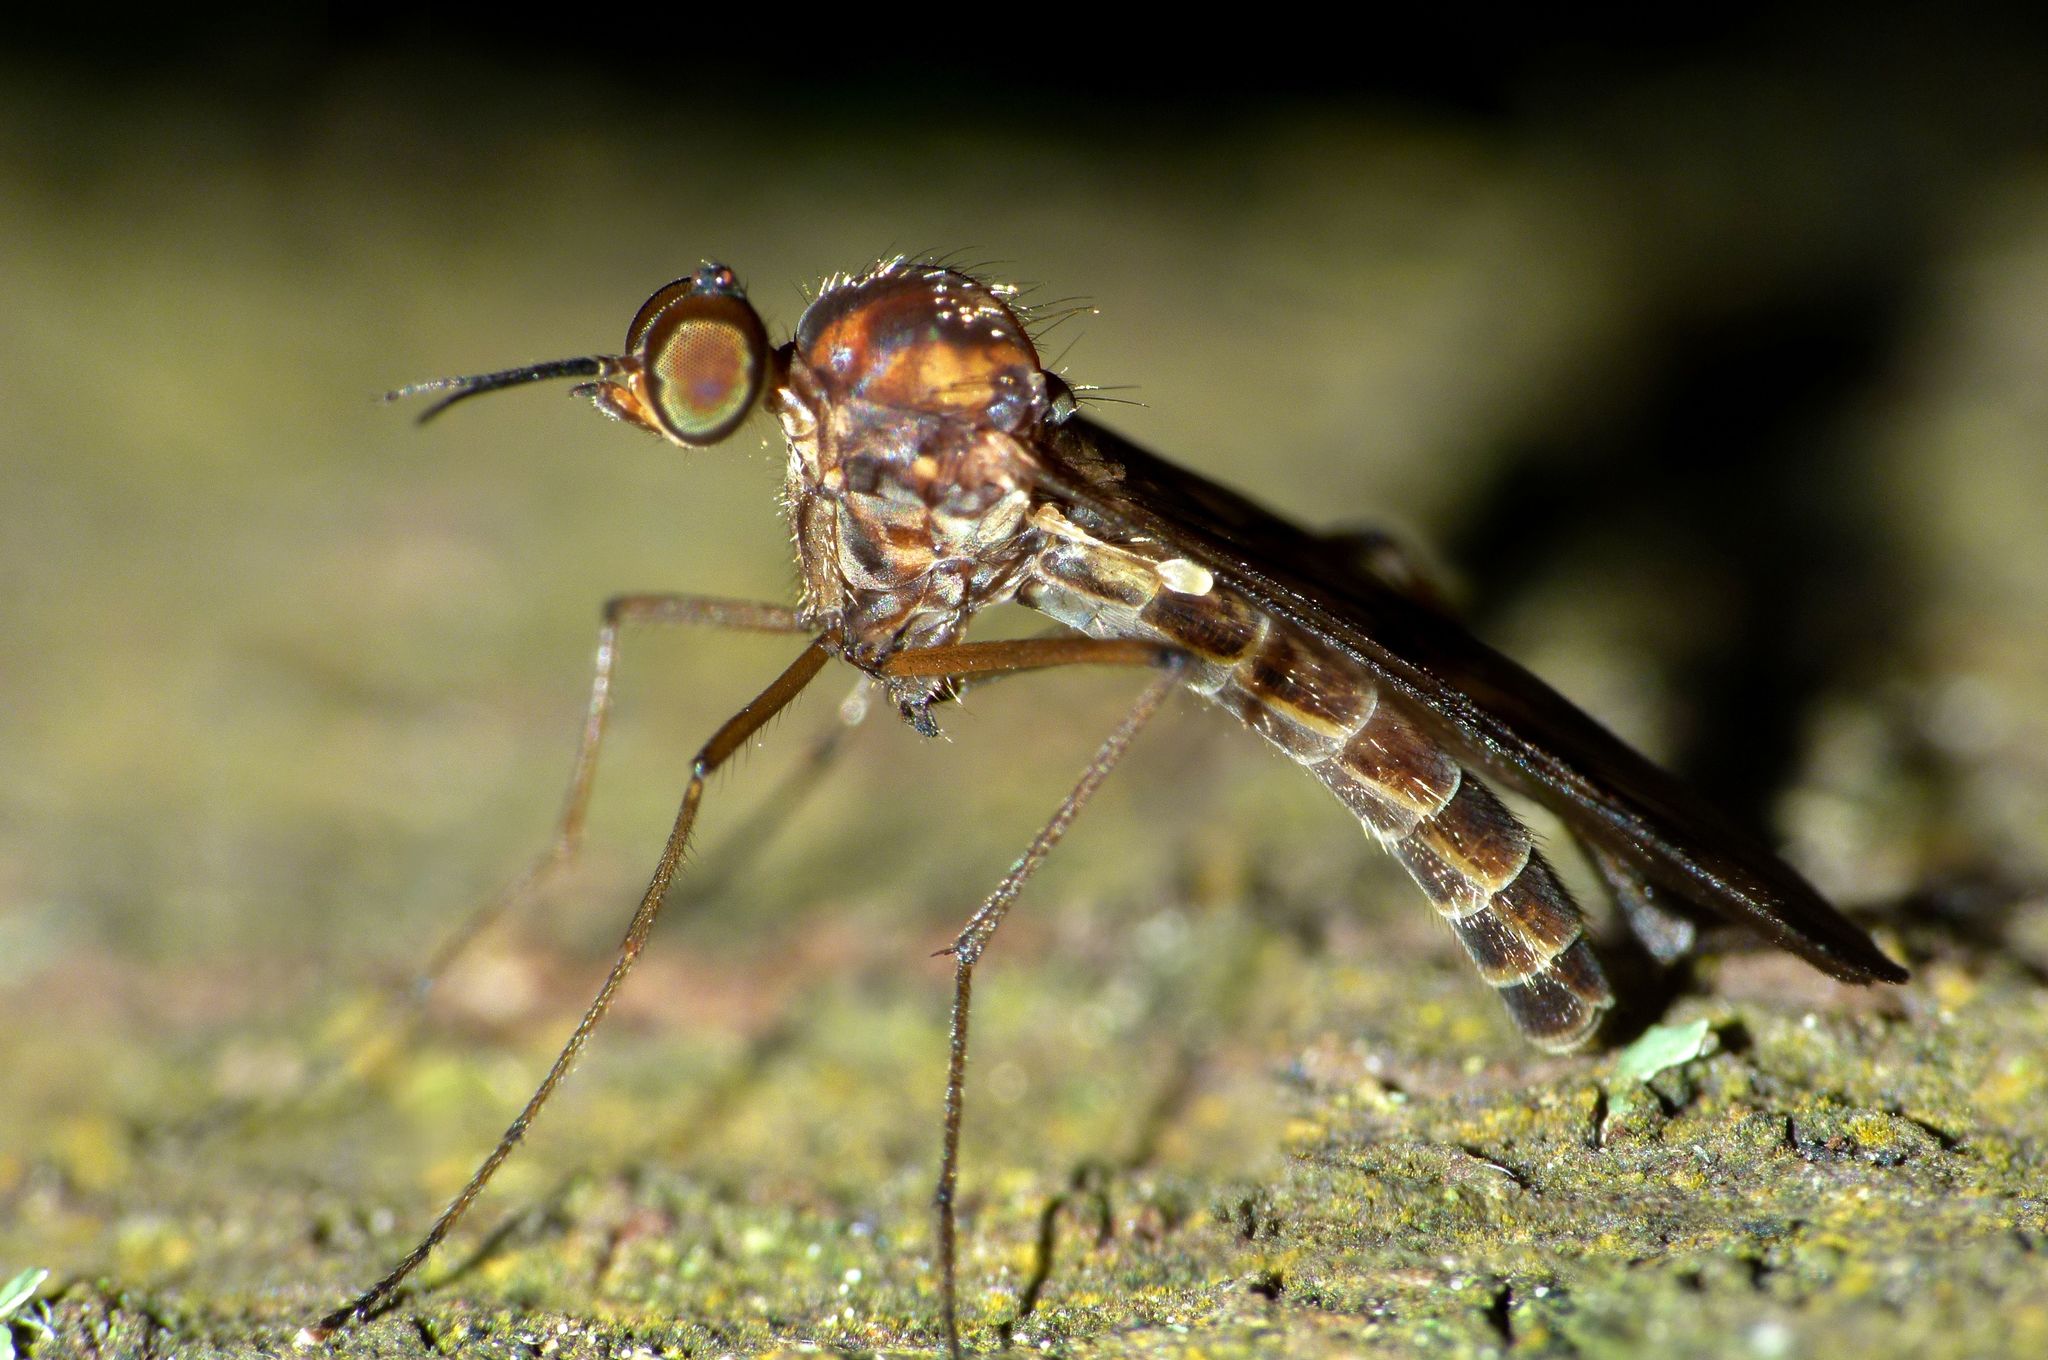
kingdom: Animalia
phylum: Arthropoda
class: Insecta
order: Diptera
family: Anisopodidae
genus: Sylvicola
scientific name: Sylvicola undulatus
